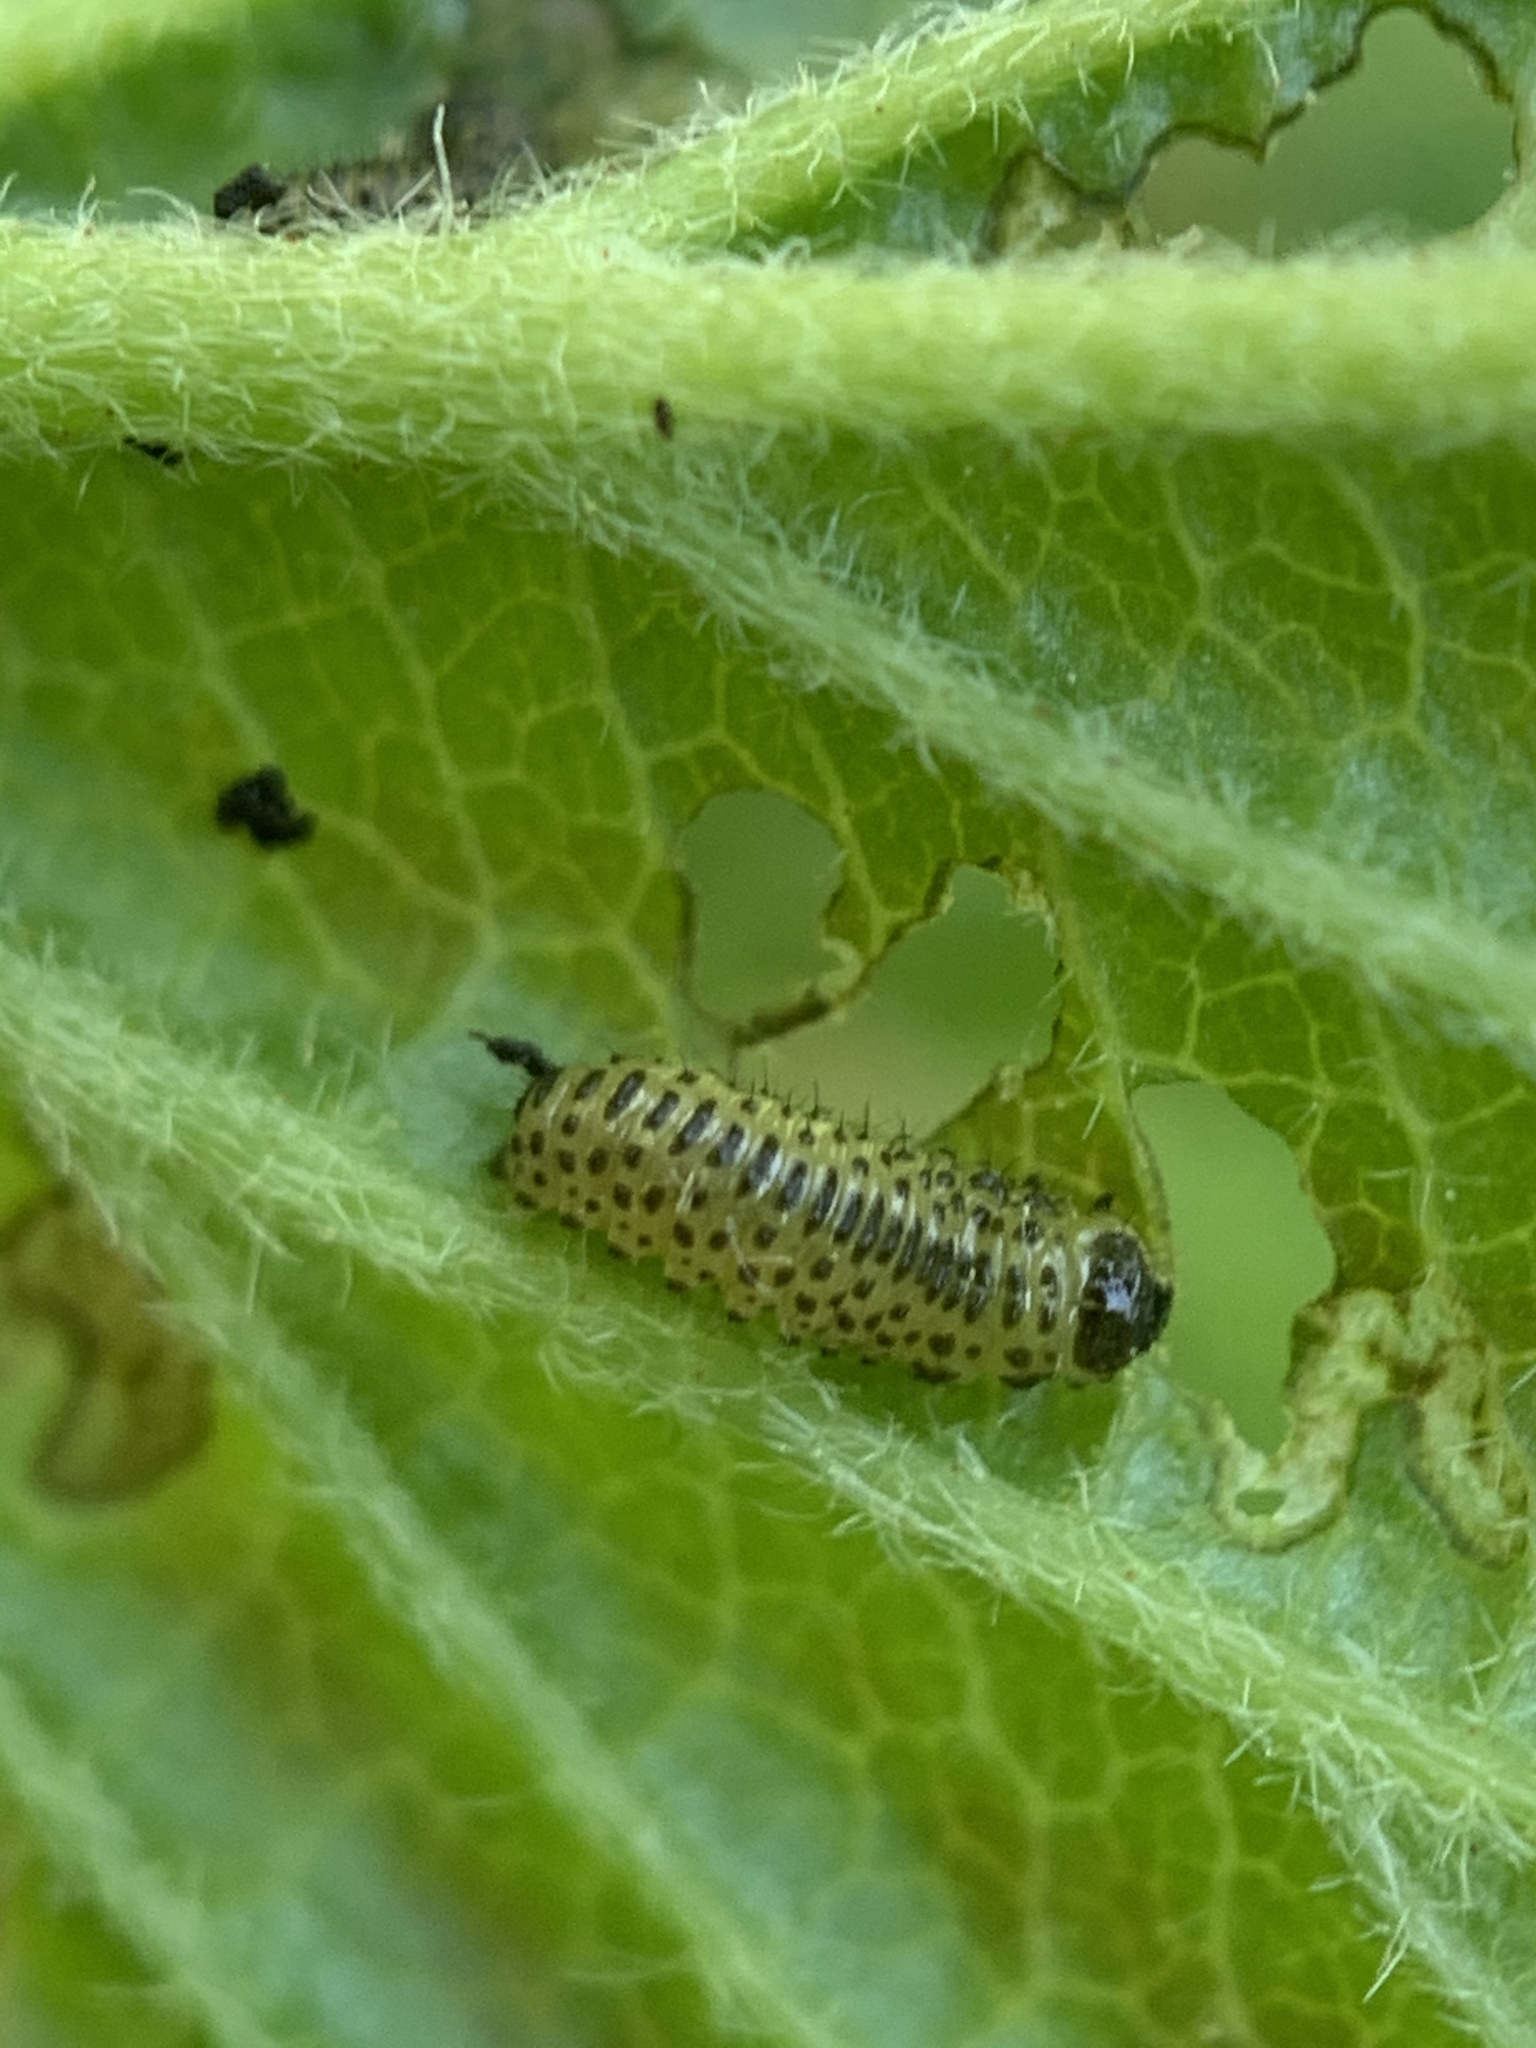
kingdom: Animalia
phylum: Arthropoda
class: Insecta
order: Coleoptera
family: Chrysomelidae
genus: Pyrrhalta
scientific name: Pyrrhalta viburni
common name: Guelder-rose leaf beetle
